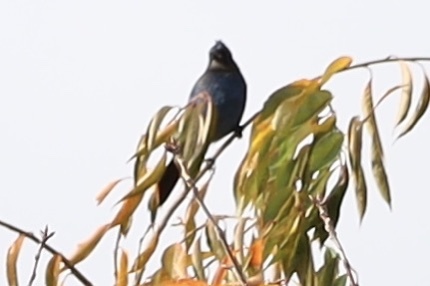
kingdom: Animalia
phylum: Chordata
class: Aves
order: Passeriformes
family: Corvidae
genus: Cyanocitta
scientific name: Cyanocitta stelleri
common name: Steller's jay
